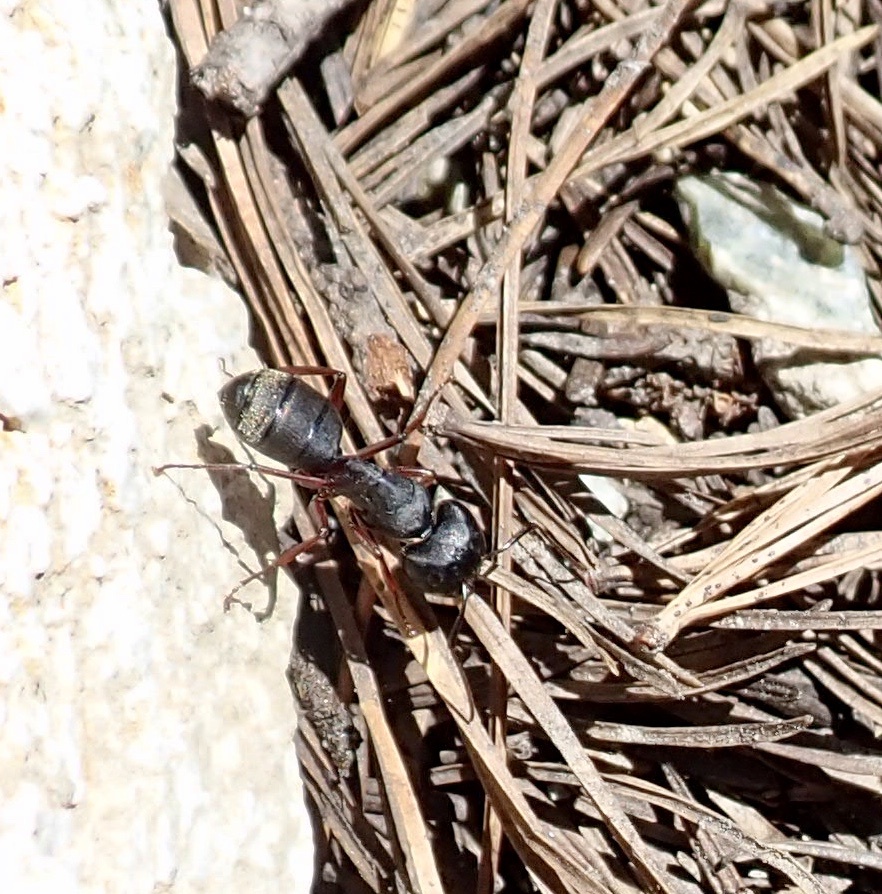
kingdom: Animalia
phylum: Arthropoda
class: Insecta
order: Hymenoptera
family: Formicidae
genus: Camponotus
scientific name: Camponotus modoc
